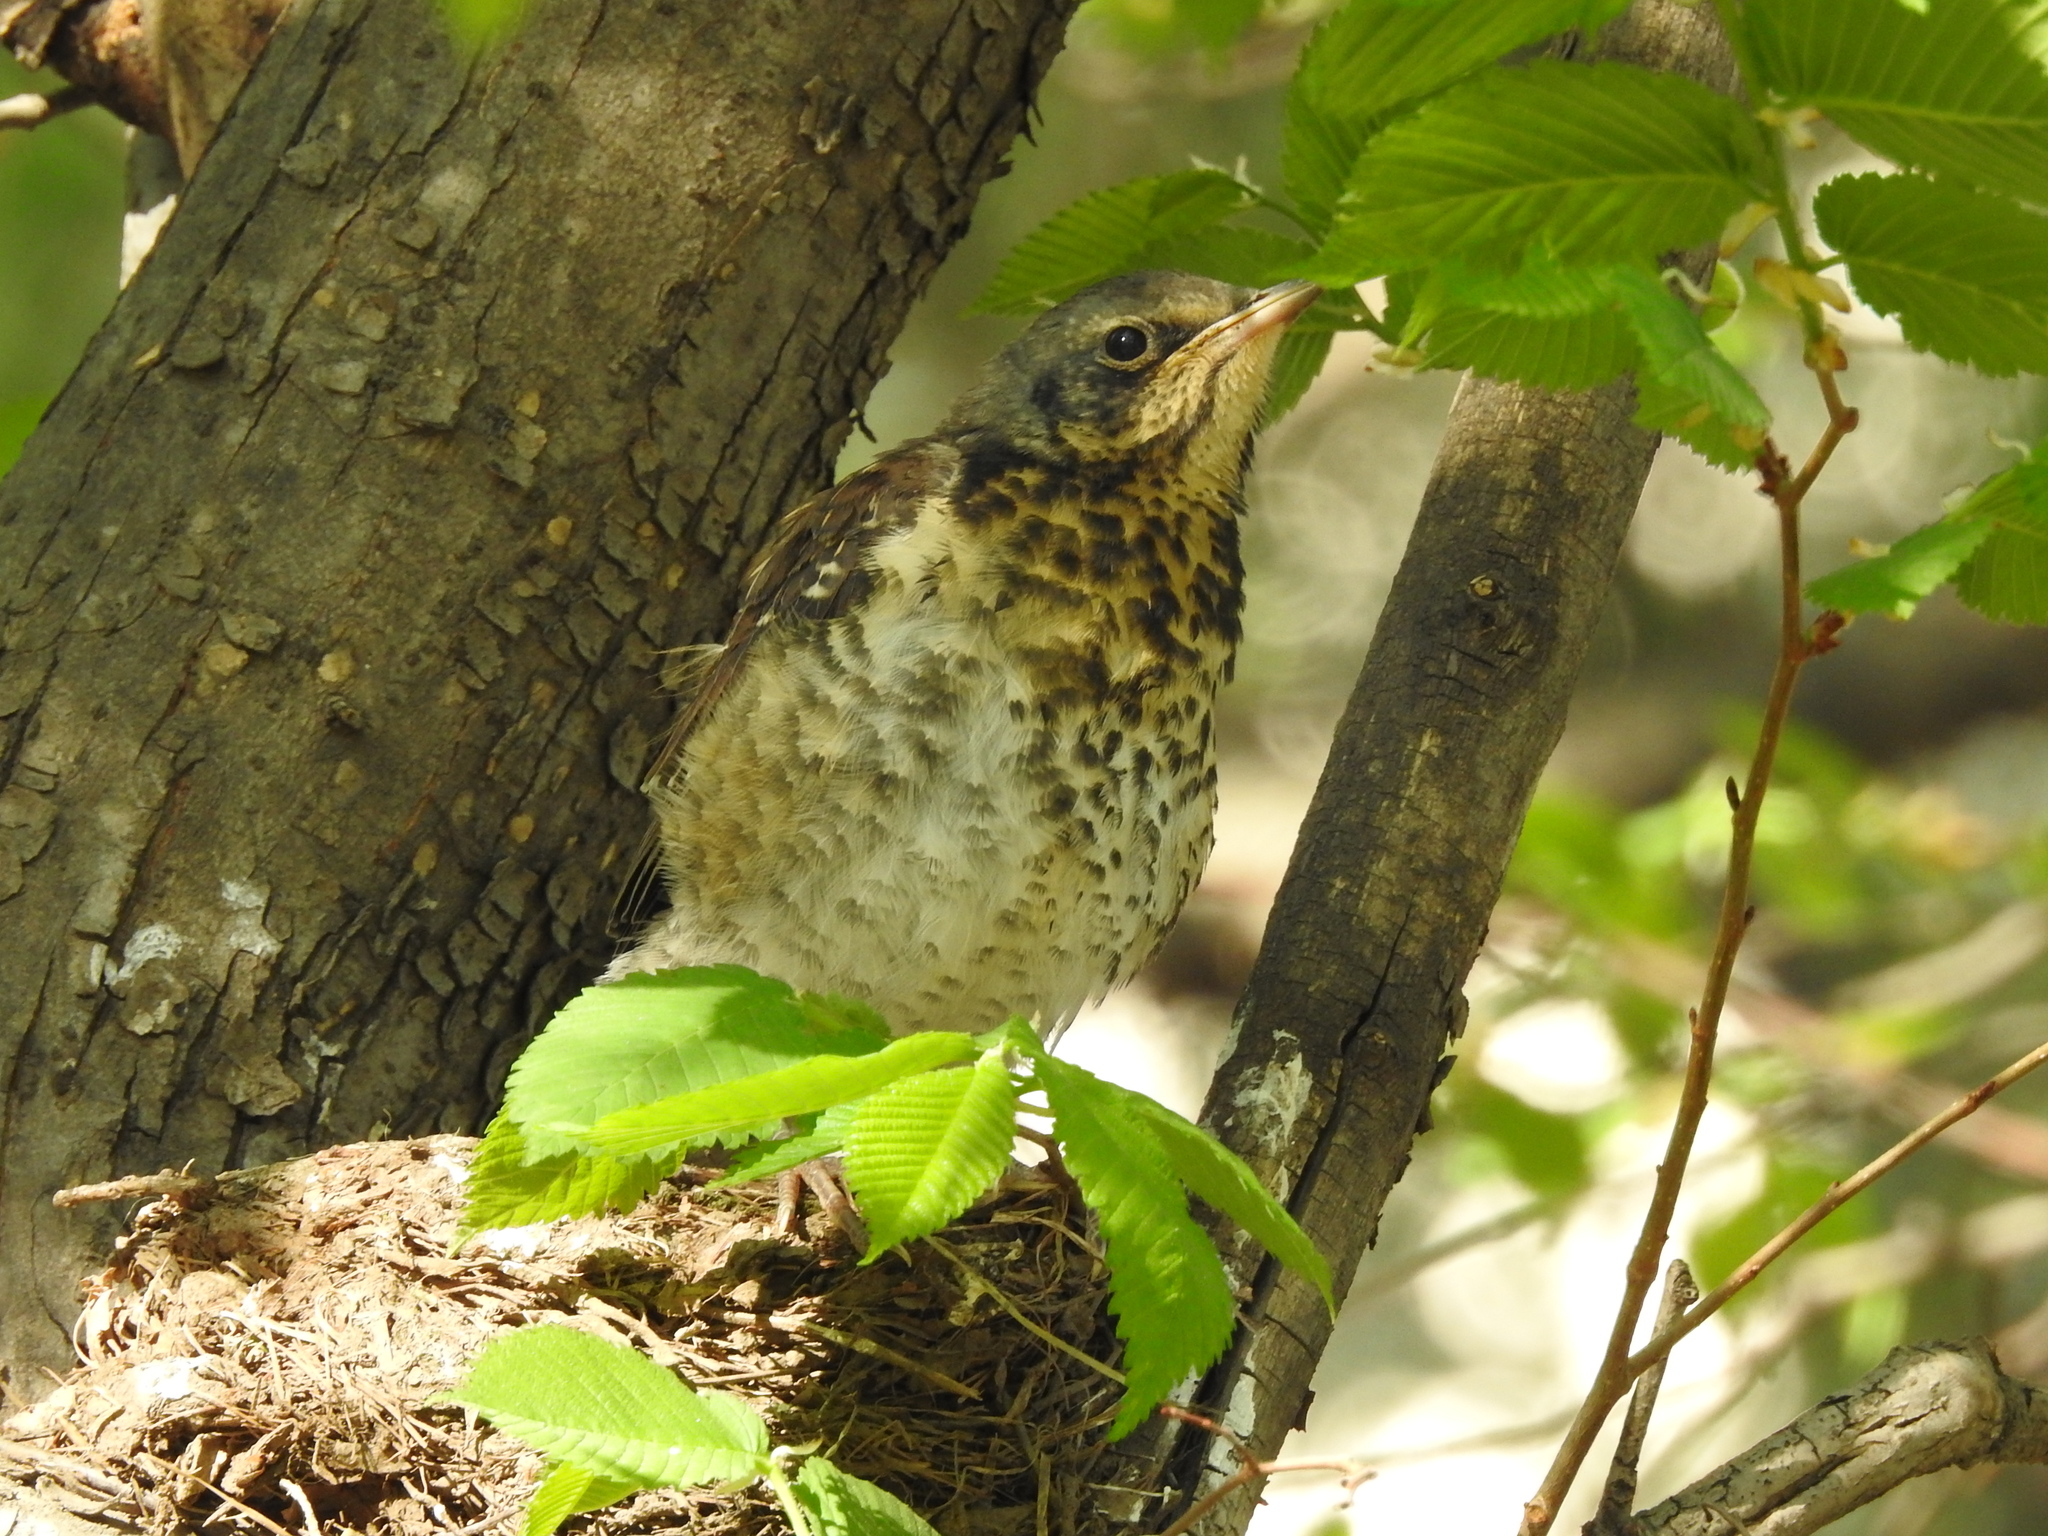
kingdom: Animalia
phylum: Chordata
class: Aves
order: Passeriformes
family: Turdidae
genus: Turdus
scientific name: Turdus pilaris
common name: Fieldfare
